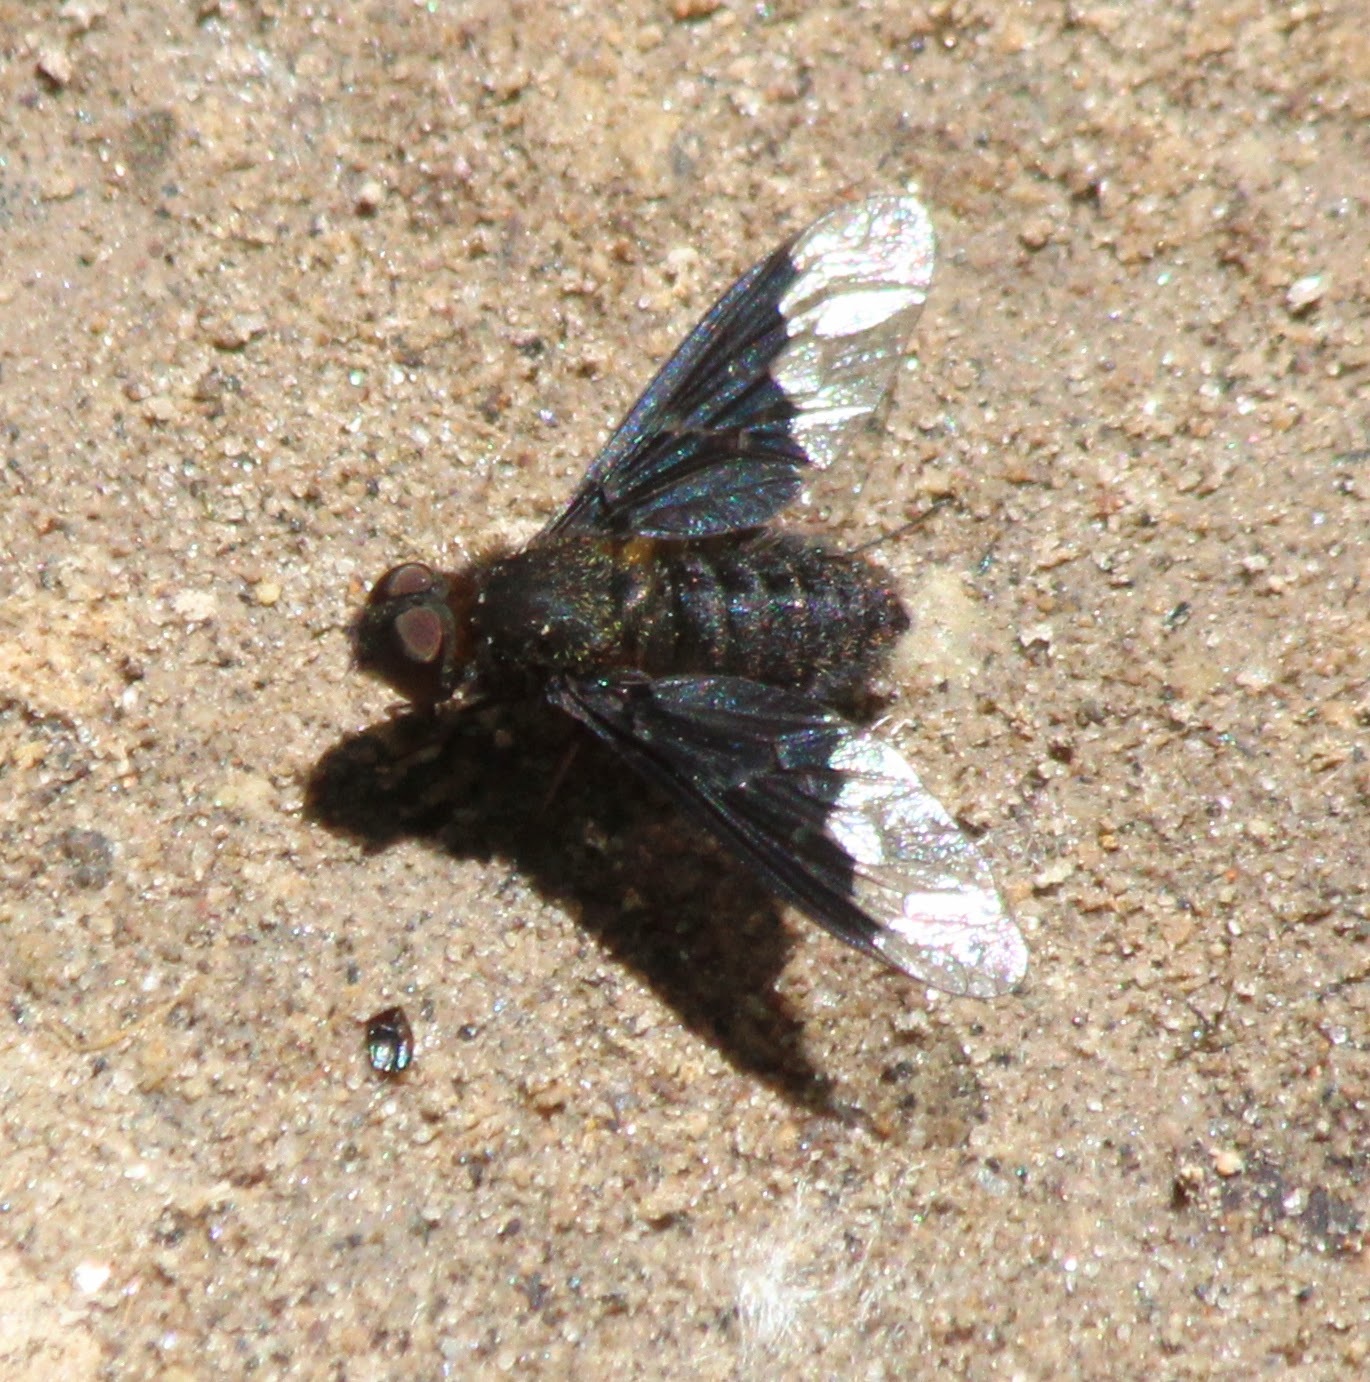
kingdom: Animalia
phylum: Arthropoda
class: Insecta
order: Diptera
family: Bombyliidae
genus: Hemipenthes
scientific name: Hemipenthes morio
